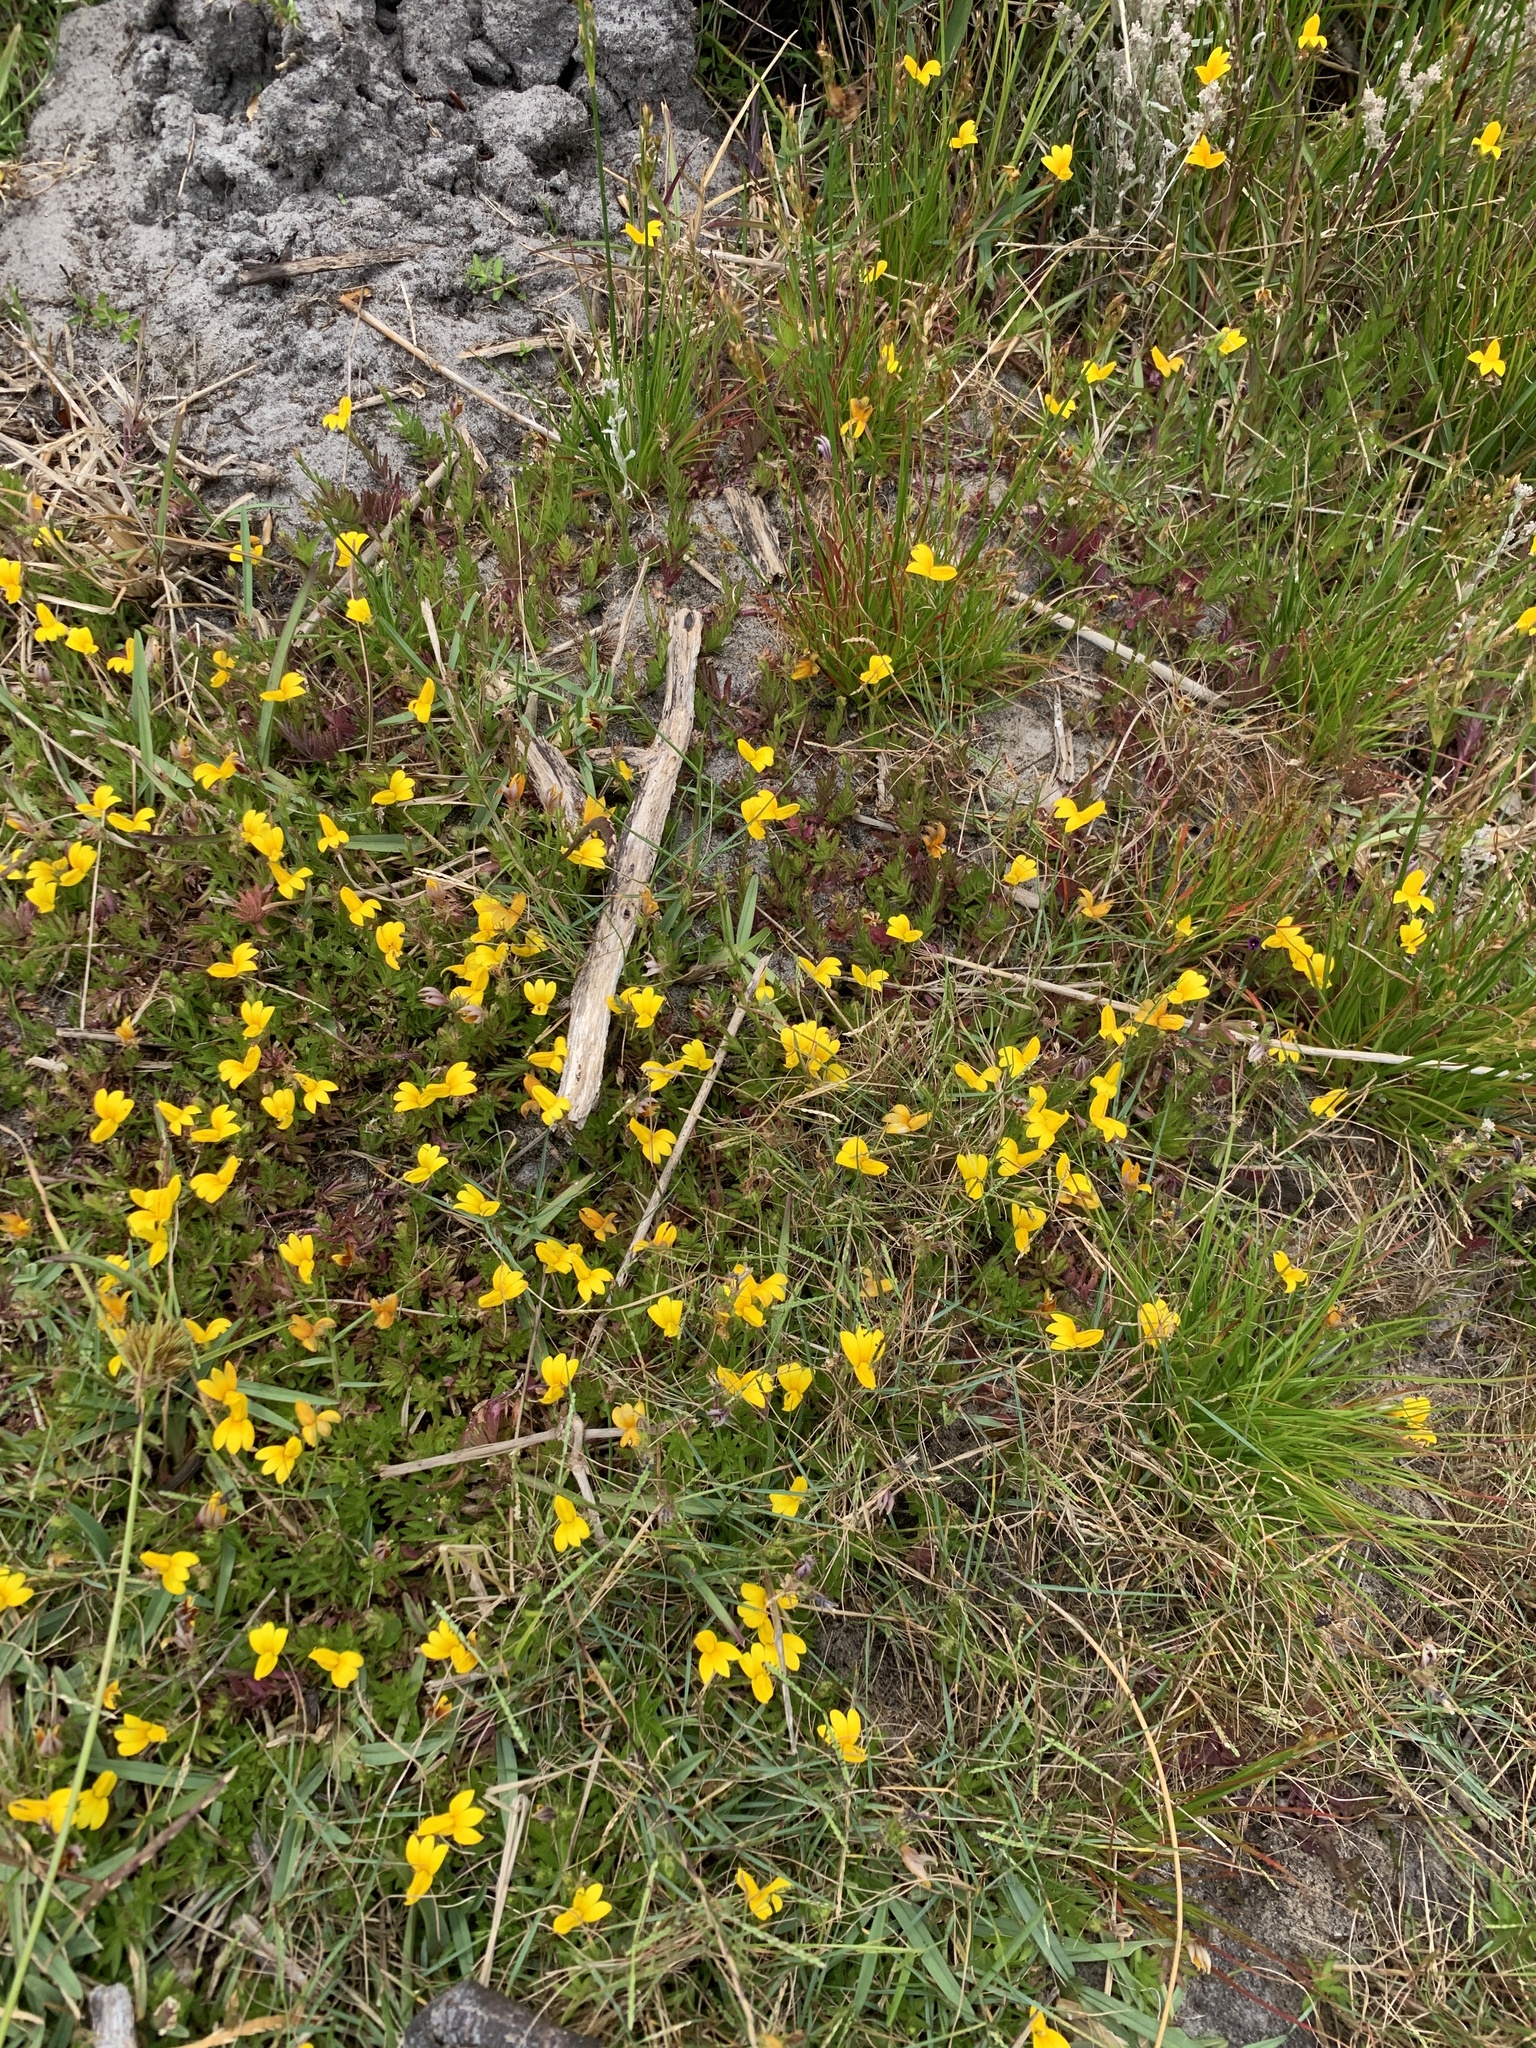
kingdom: Plantae
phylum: Tracheophyta
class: Magnoliopsida
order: Asterales
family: Campanulaceae
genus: Monopsis
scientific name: Monopsis lutea
